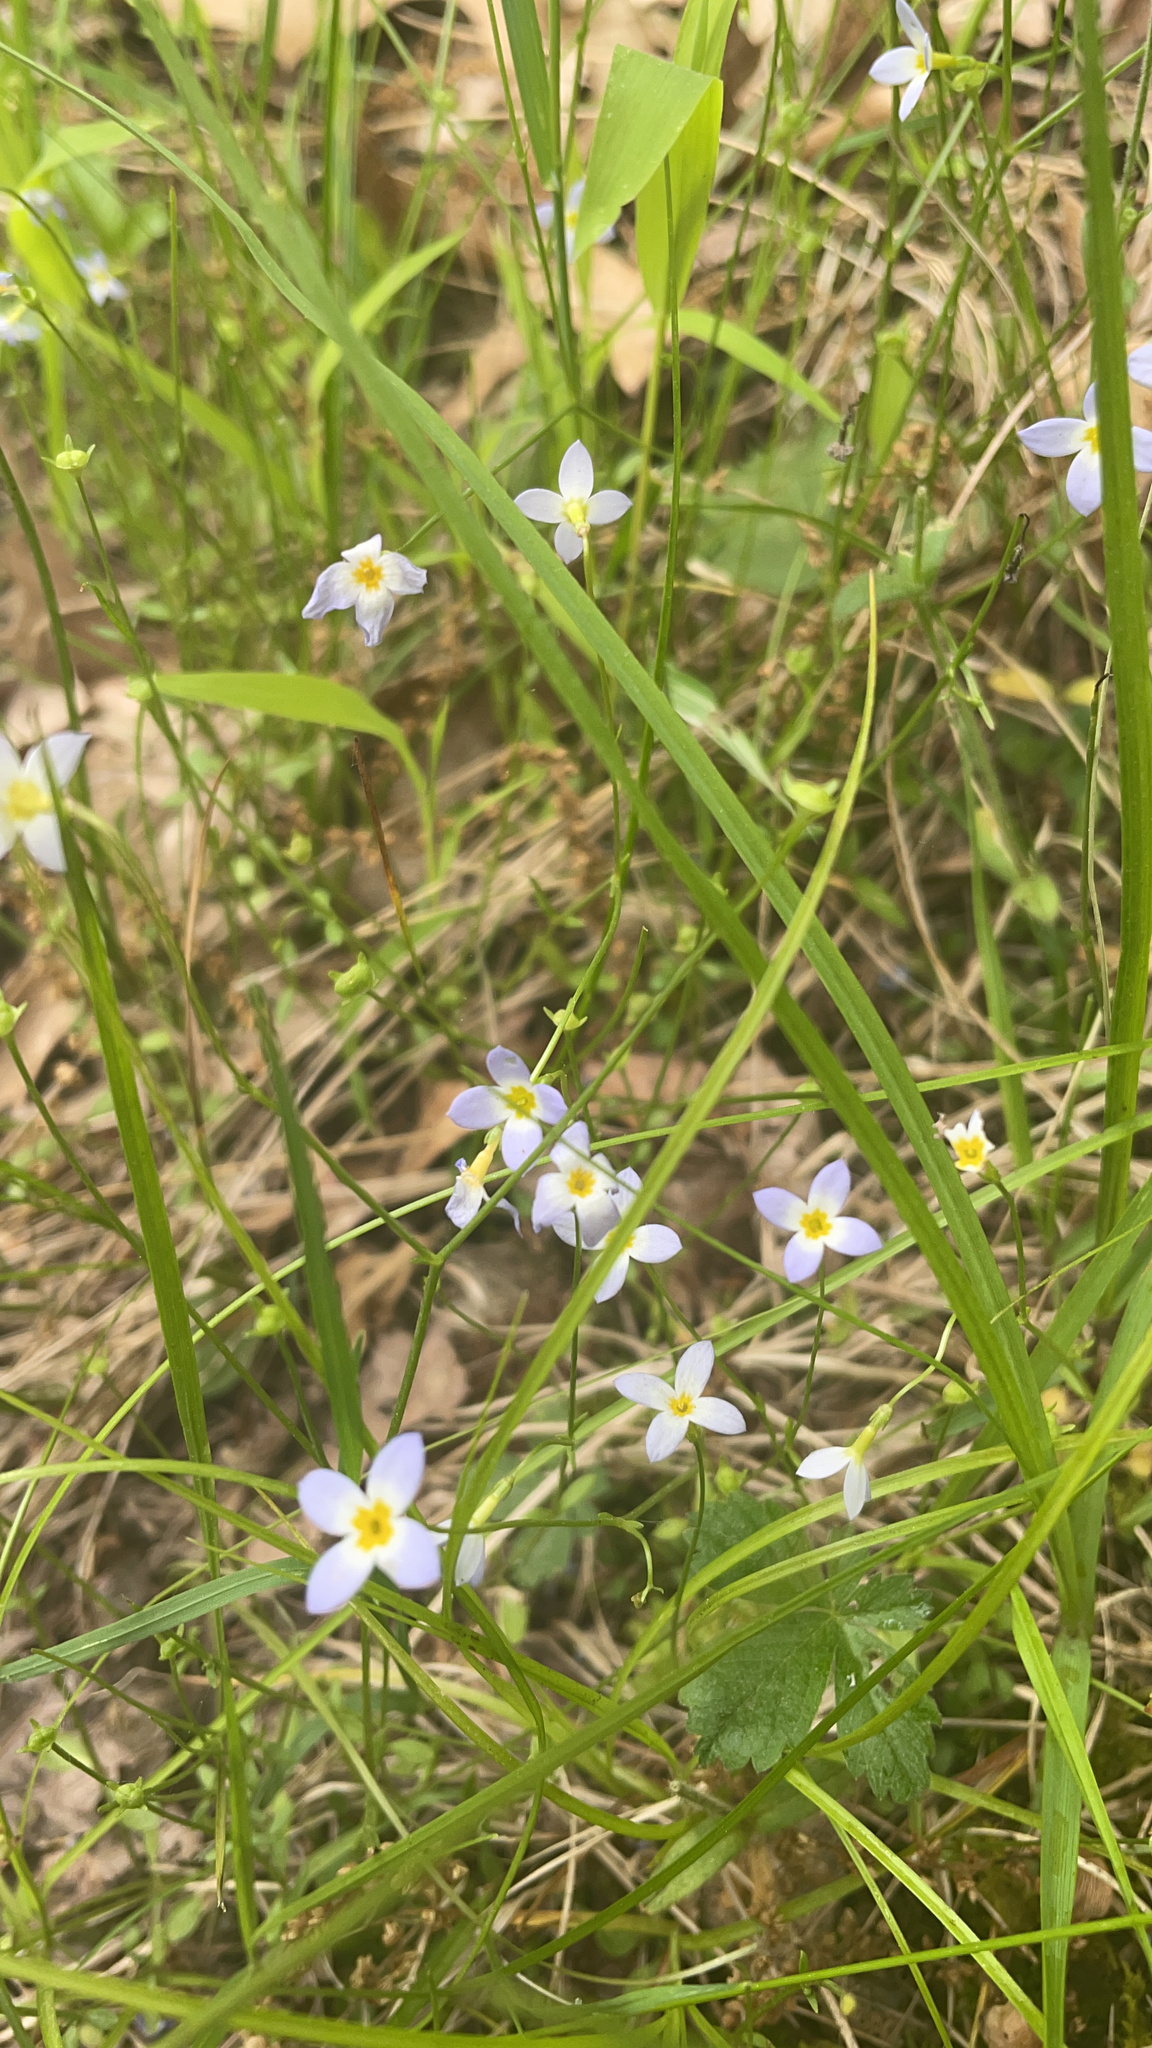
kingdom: Plantae
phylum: Tracheophyta
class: Magnoliopsida
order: Gentianales
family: Rubiaceae
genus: Houstonia
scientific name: Houstonia caerulea
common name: Bluets
